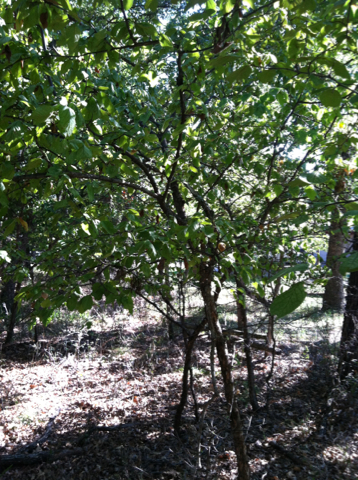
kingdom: Plantae
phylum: Tracheophyta
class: Magnoliopsida
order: Rosales
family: Rosaceae
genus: Prunus
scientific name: Prunus mexicana
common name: Mexican plum
